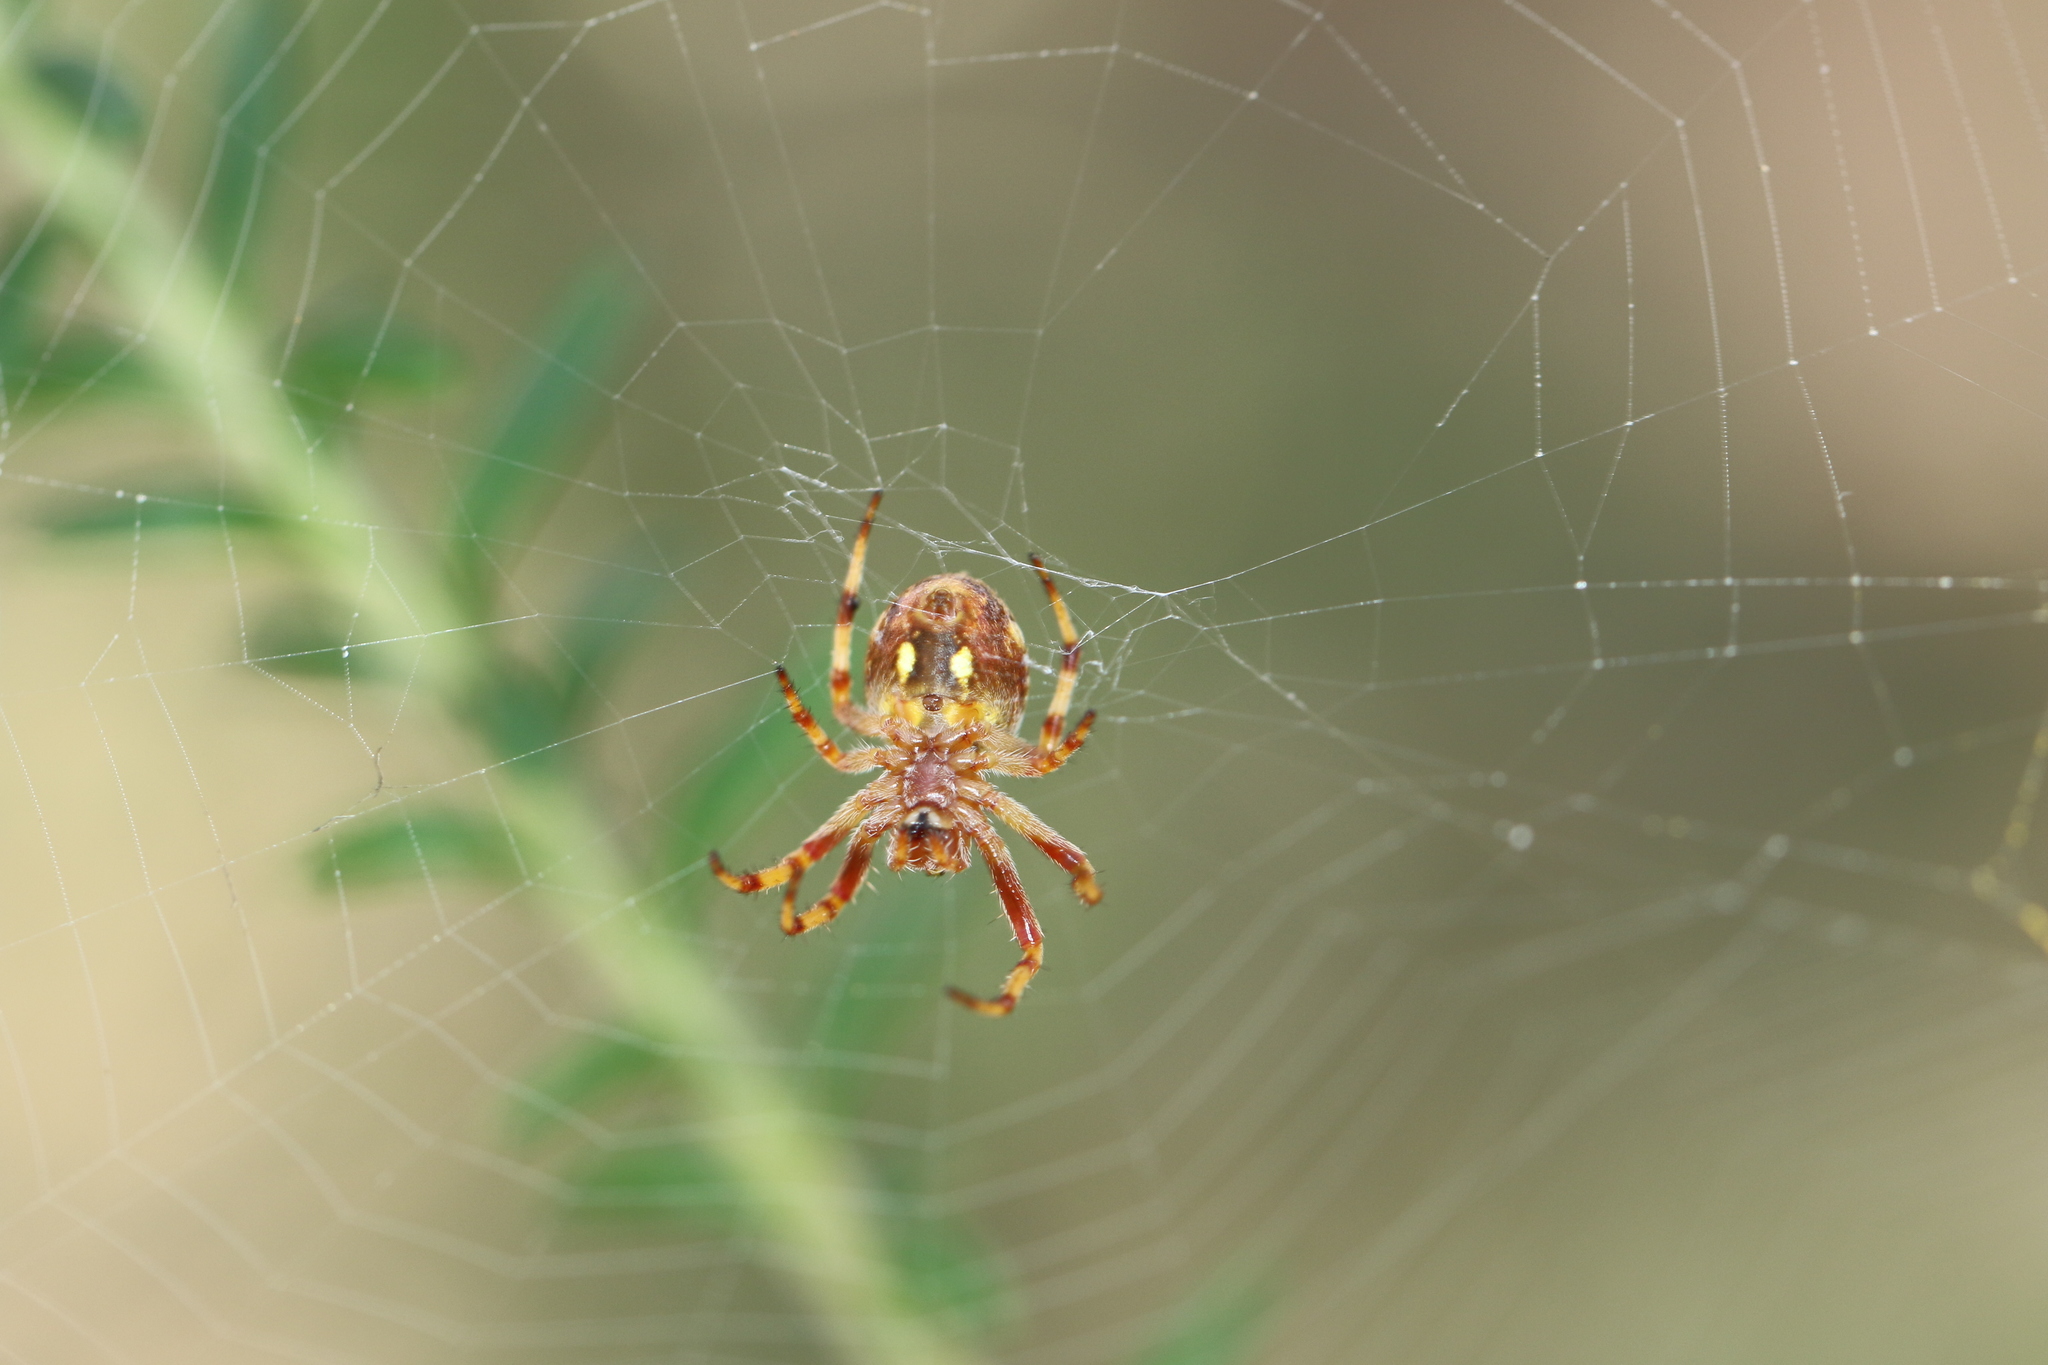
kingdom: Animalia
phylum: Arthropoda
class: Arachnida
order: Araneae
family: Araneidae
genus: Salsa
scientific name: Salsa fuliginata
